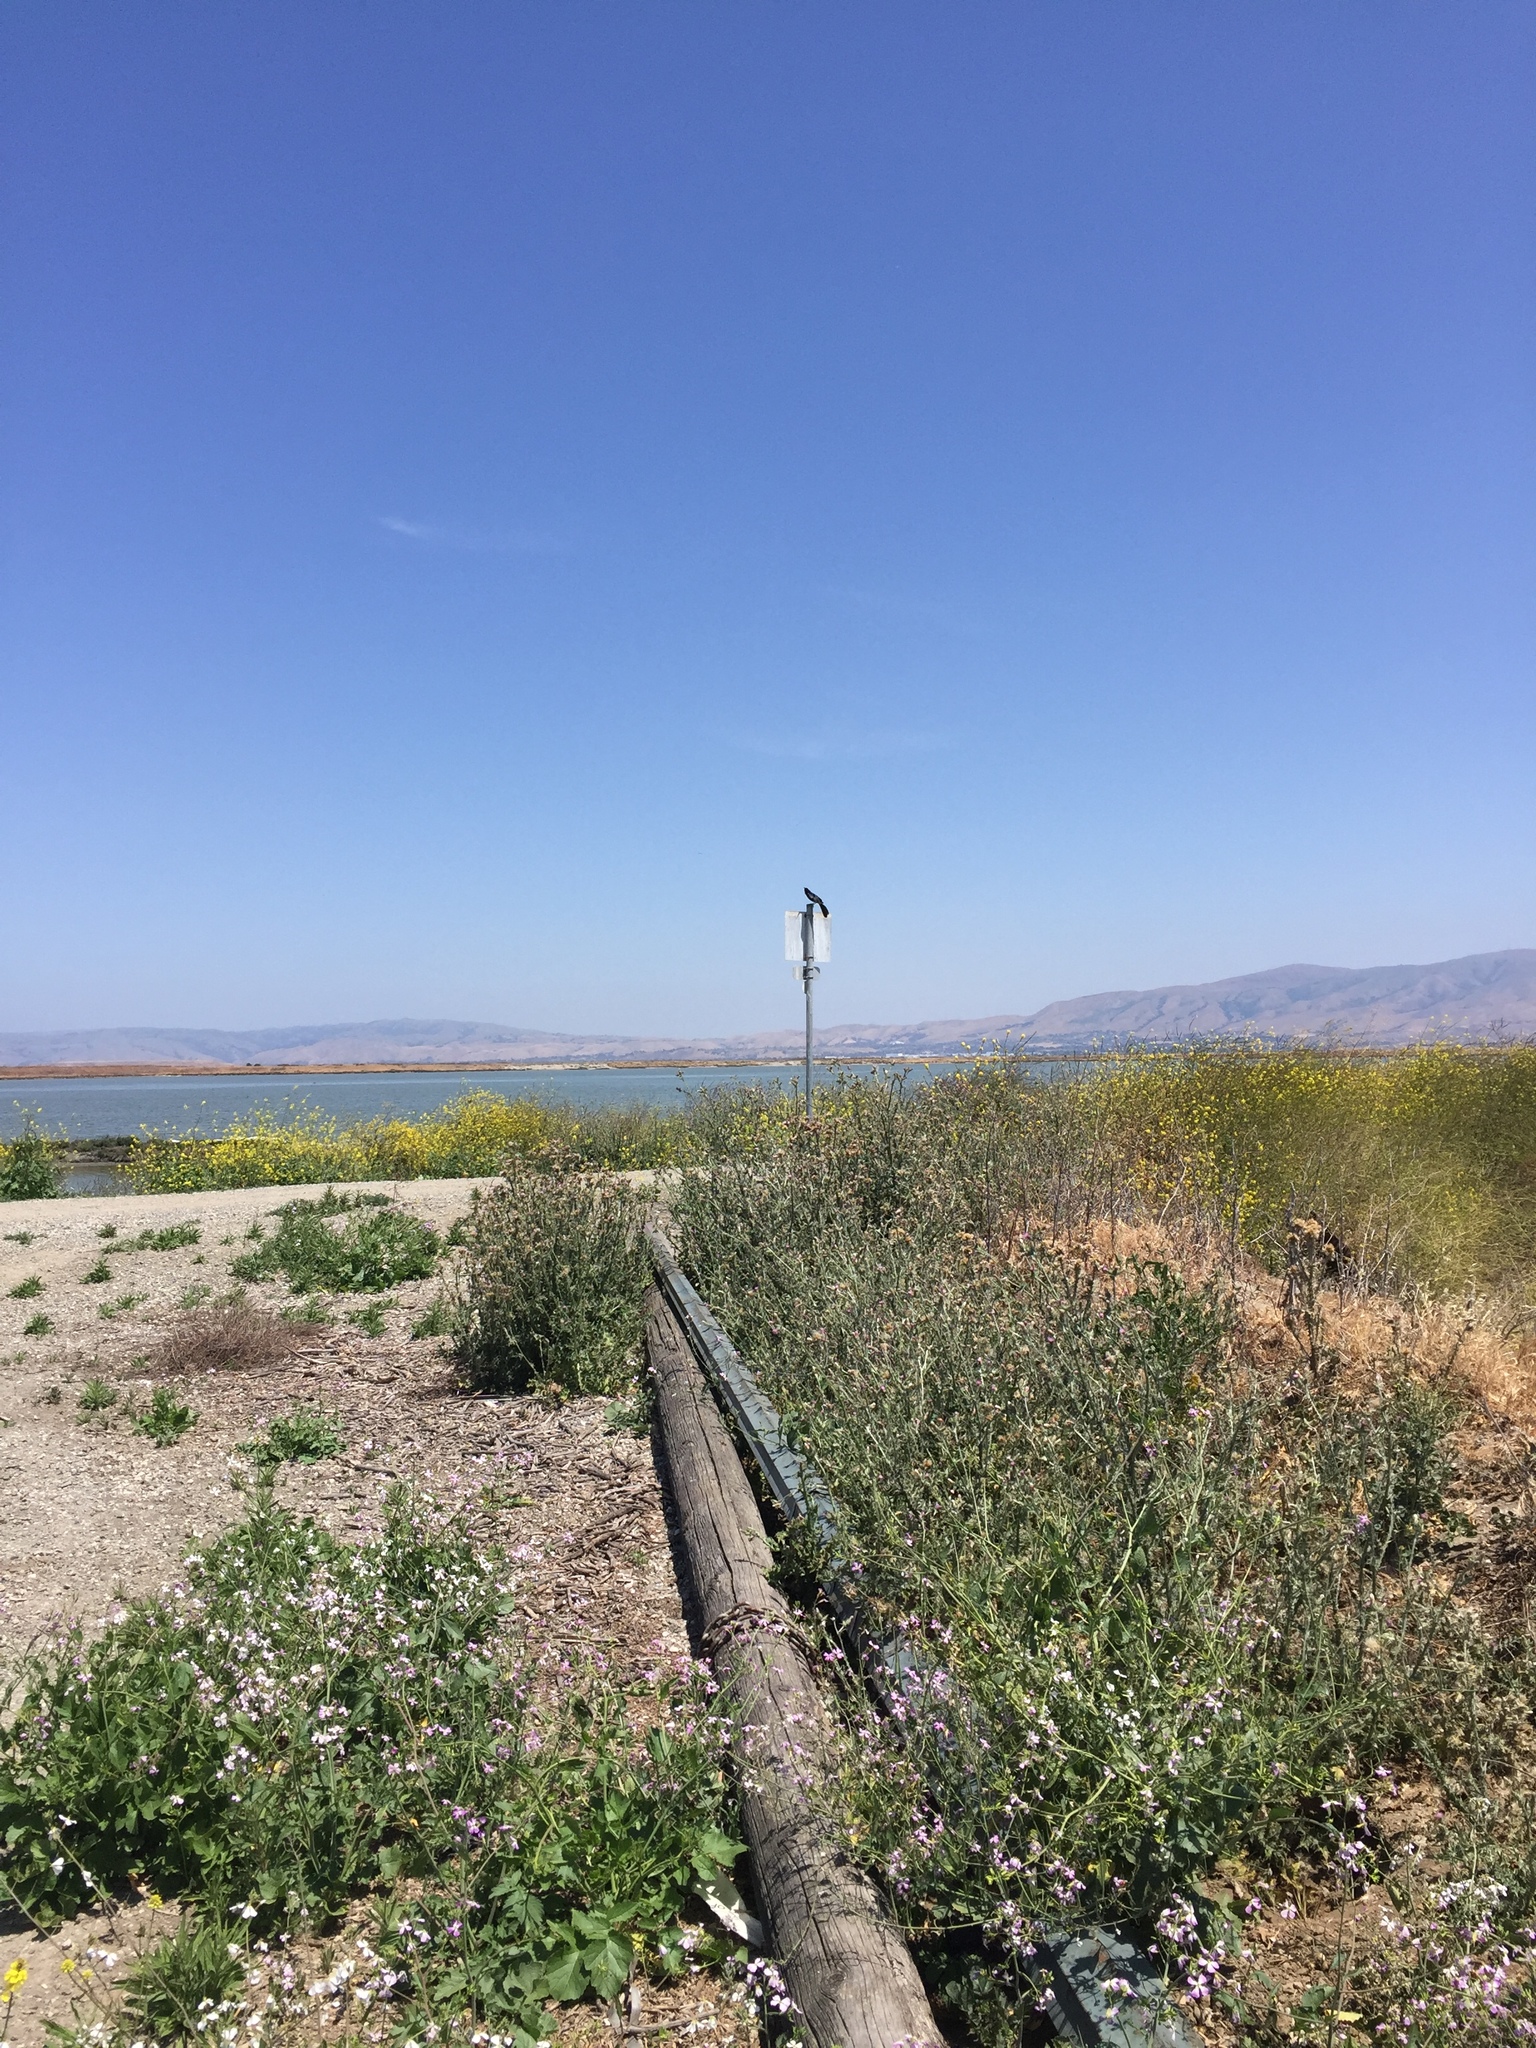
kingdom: Animalia
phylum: Chordata
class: Aves
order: Passeriformes
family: Icteridae
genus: Quiscalus
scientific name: Quiscalus mexicanus
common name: Great-tailed grackle
